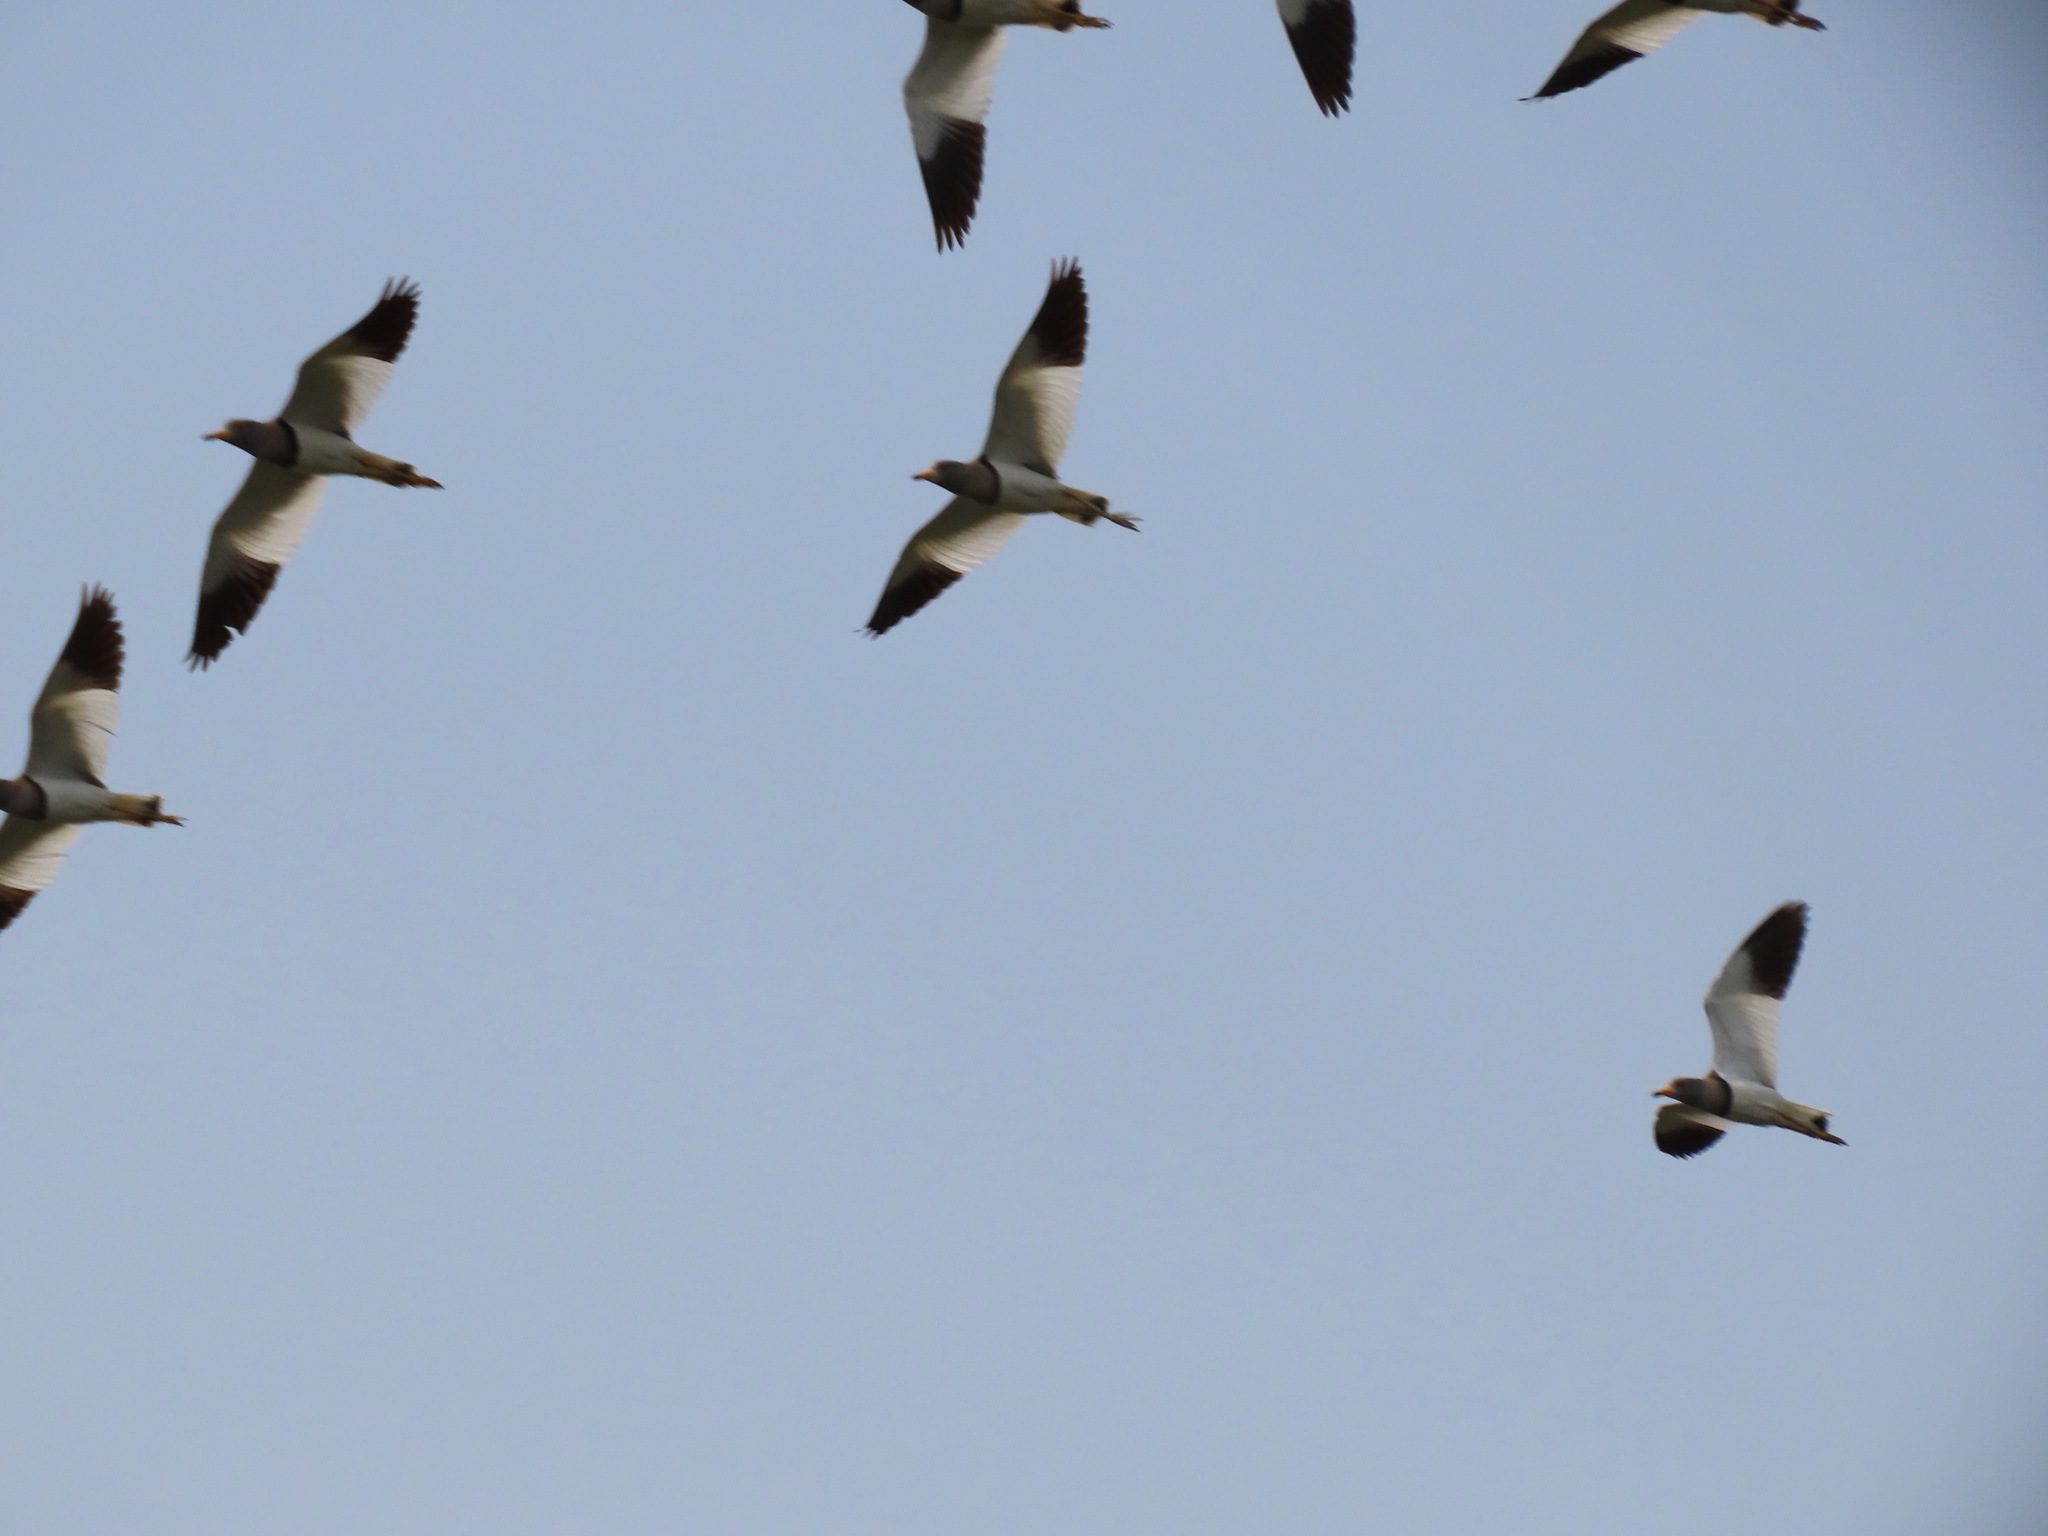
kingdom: Animalia
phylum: Chordata
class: Aves
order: Charadriiformes
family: Charadriidae
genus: Vanellus
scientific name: Vanellus cinereus
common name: Grey-headed lapwing
